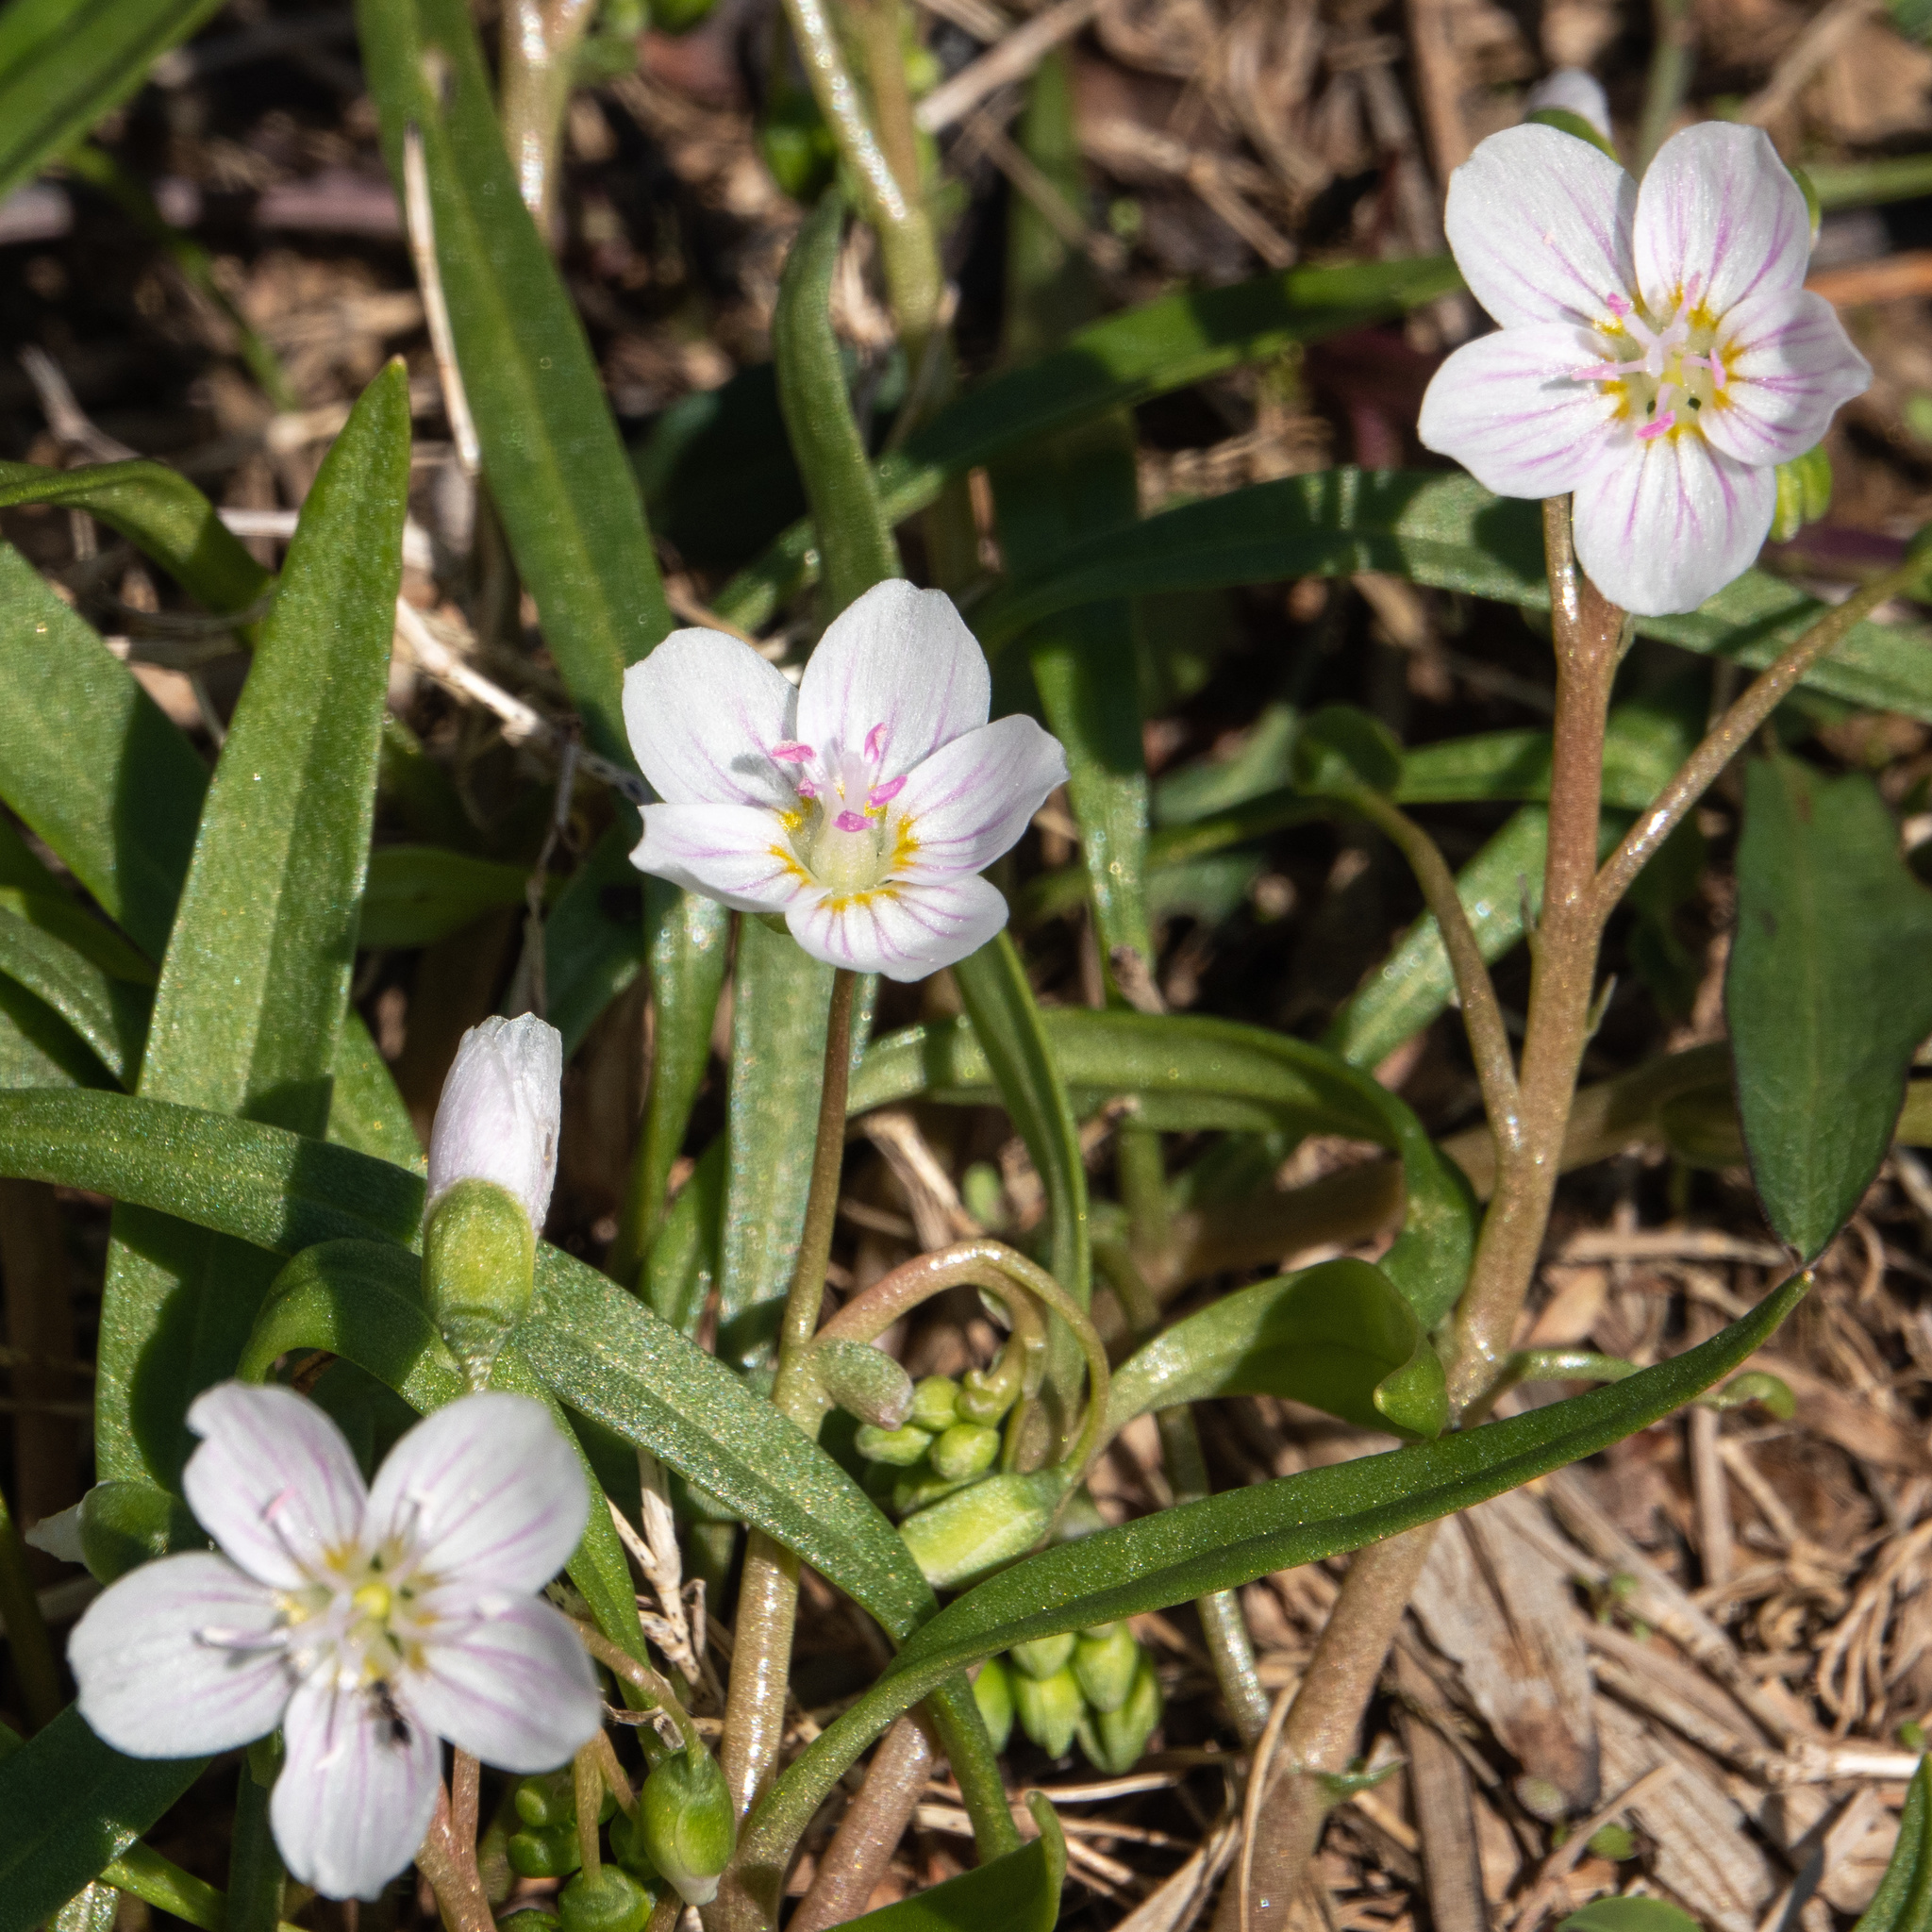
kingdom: Plantae
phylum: Tracheophyta
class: Magnoliopsida
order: Caryophyllales
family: Montiaceae
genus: Claytonia
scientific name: Claytonia virginica
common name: Virginia springbeauty
